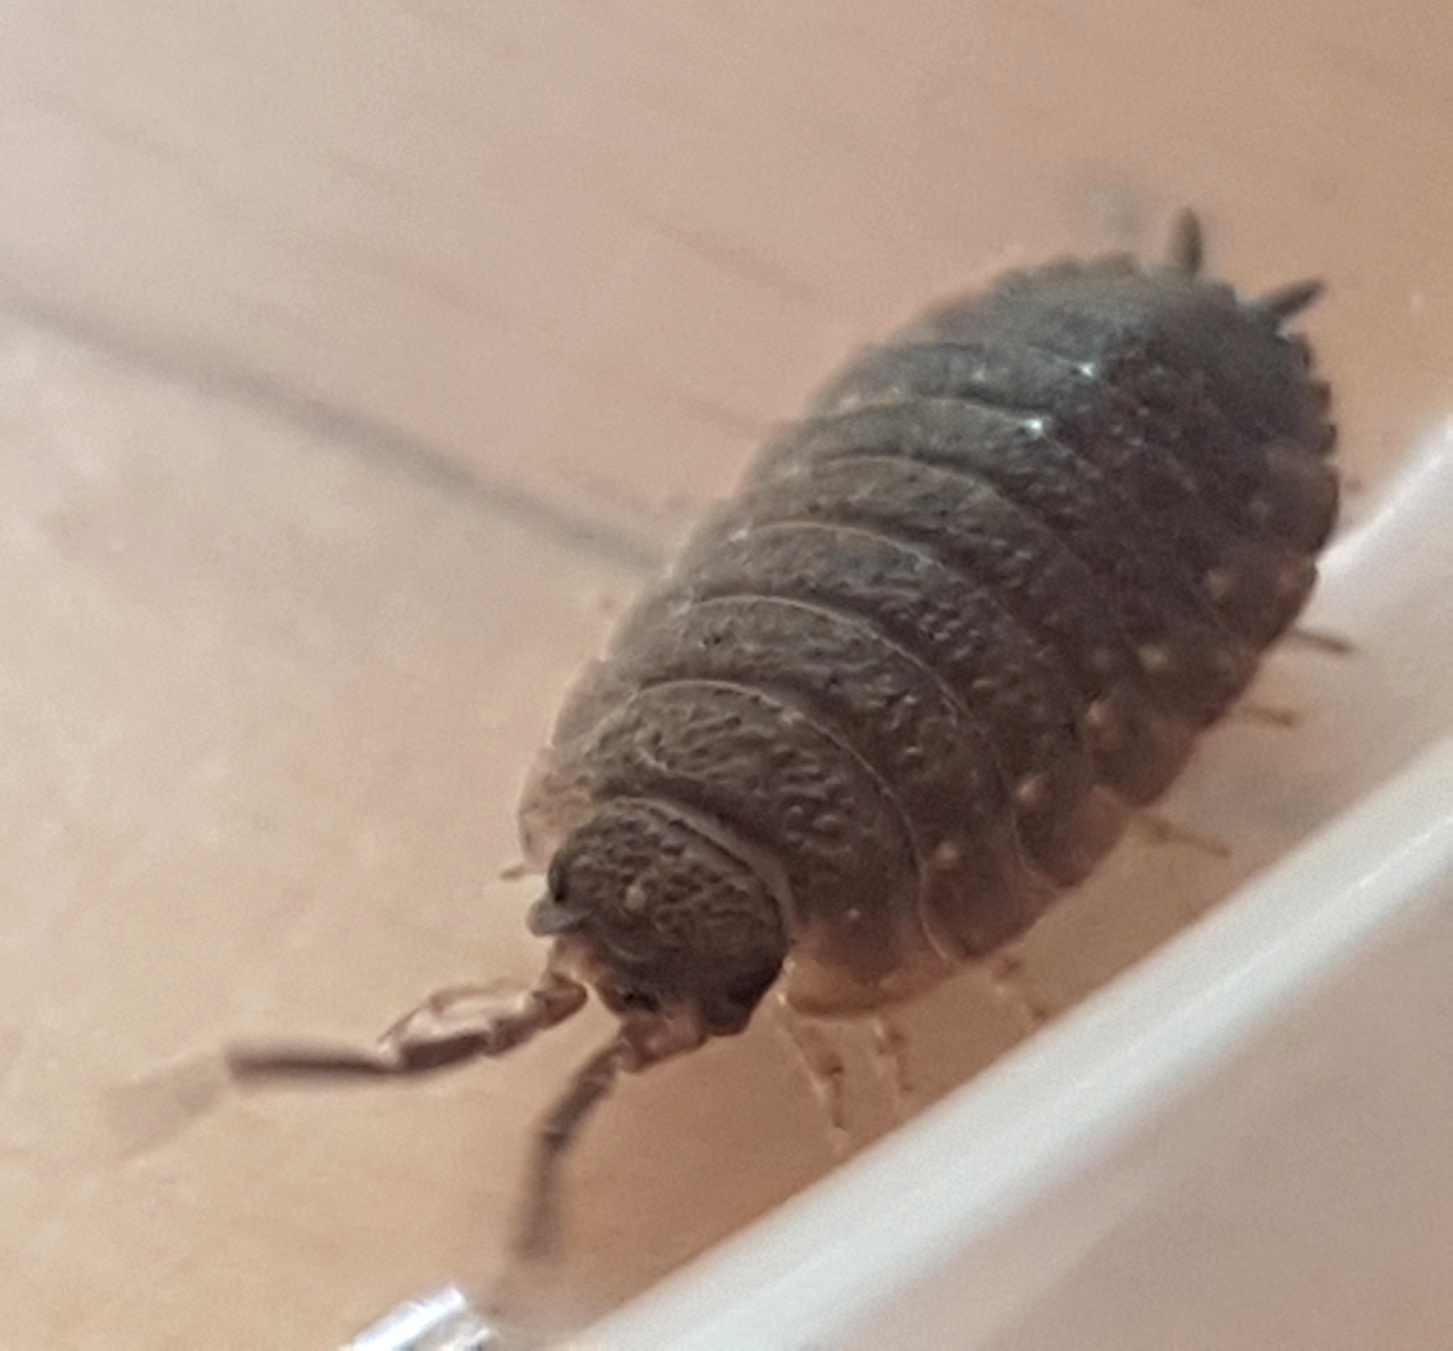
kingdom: Animalia
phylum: Arthropoda
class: Malacostraca
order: Isopoda
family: Porcellionidae
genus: Porcellio
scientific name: Porcellio scaber
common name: Common rough woodlouse
